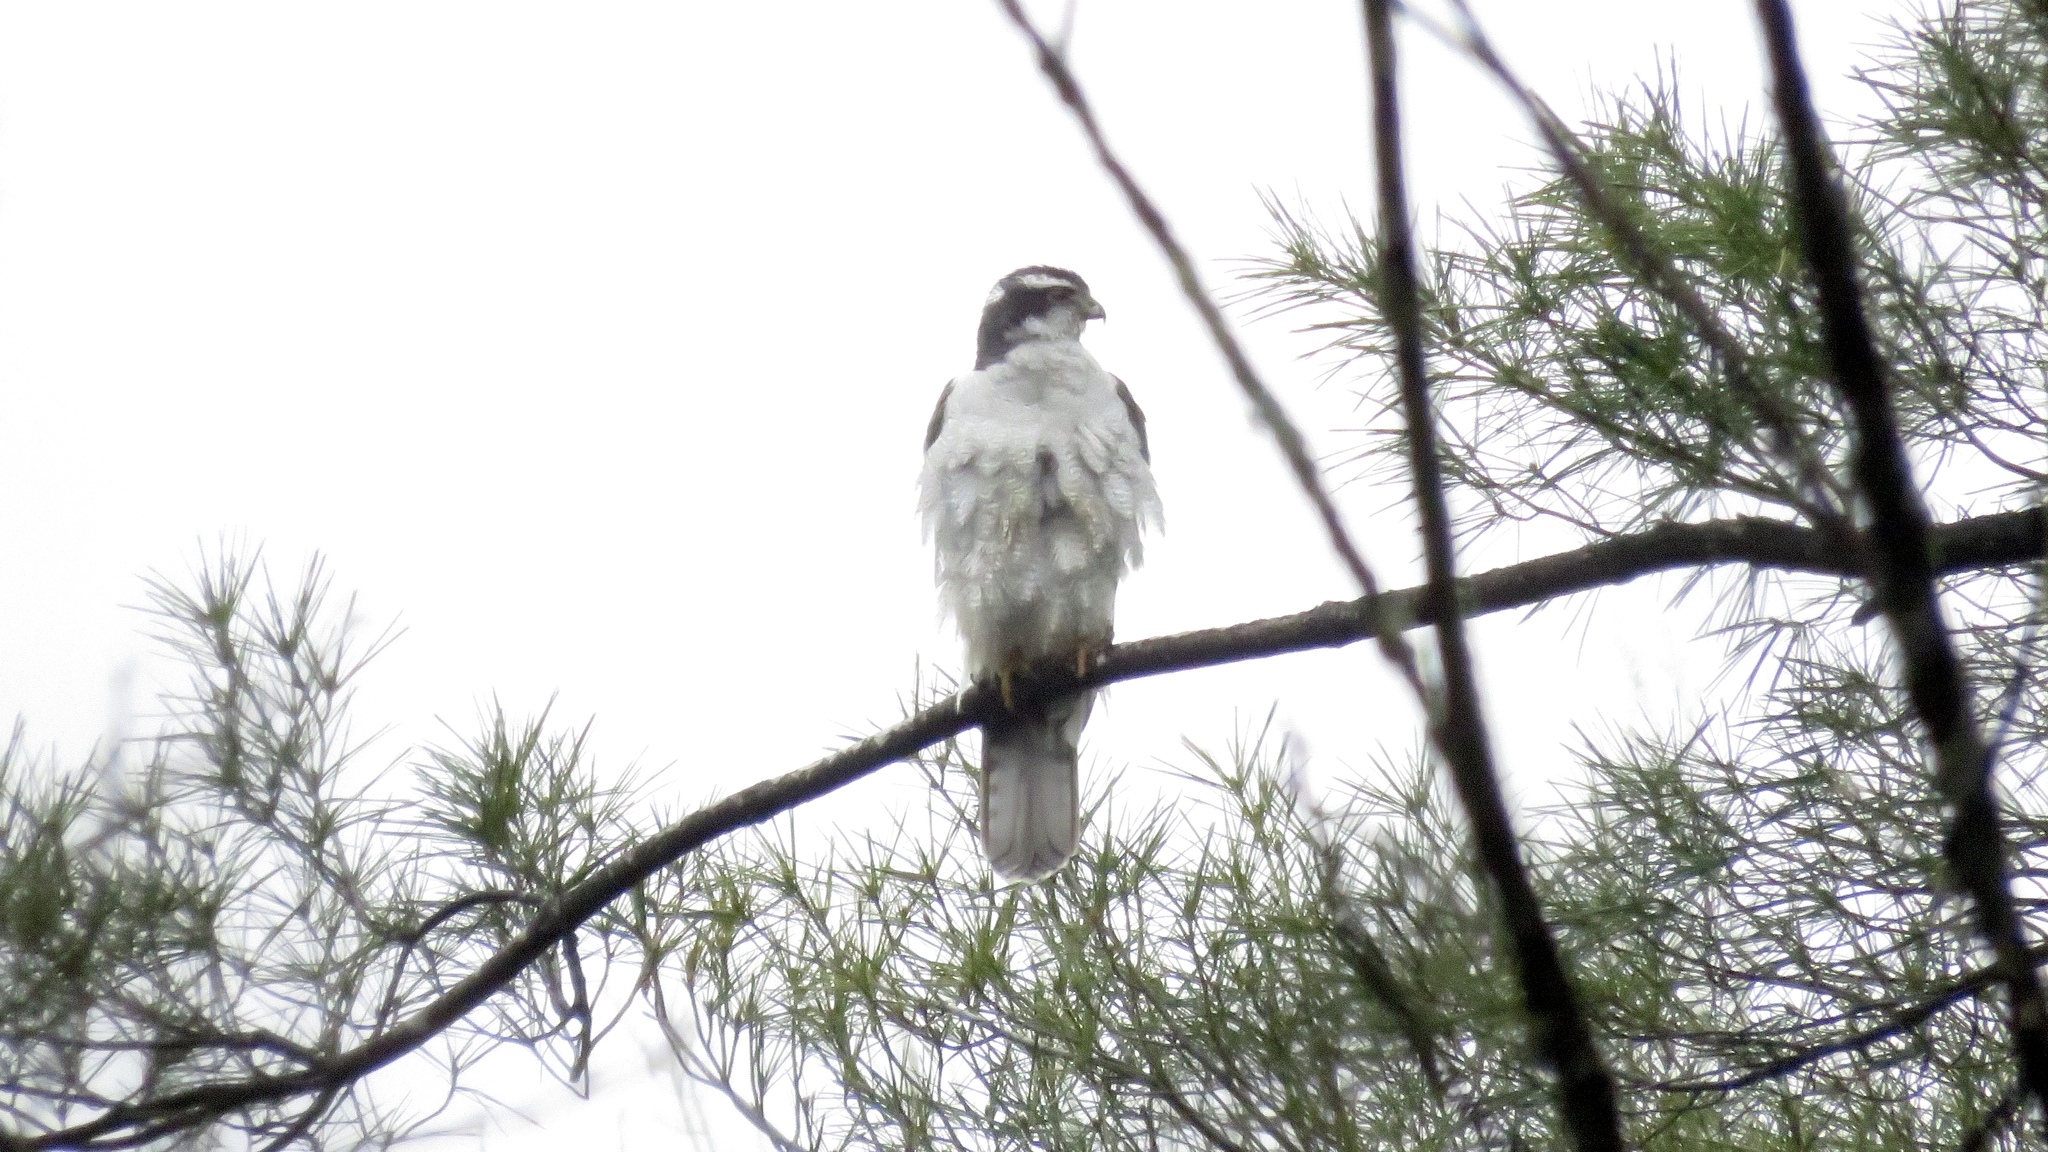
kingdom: Animalia
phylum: Chordata
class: Aves
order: Accipitriformes
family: Accipitridae
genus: Accipiter
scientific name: Accipiter gentilis
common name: Northern goshawk
